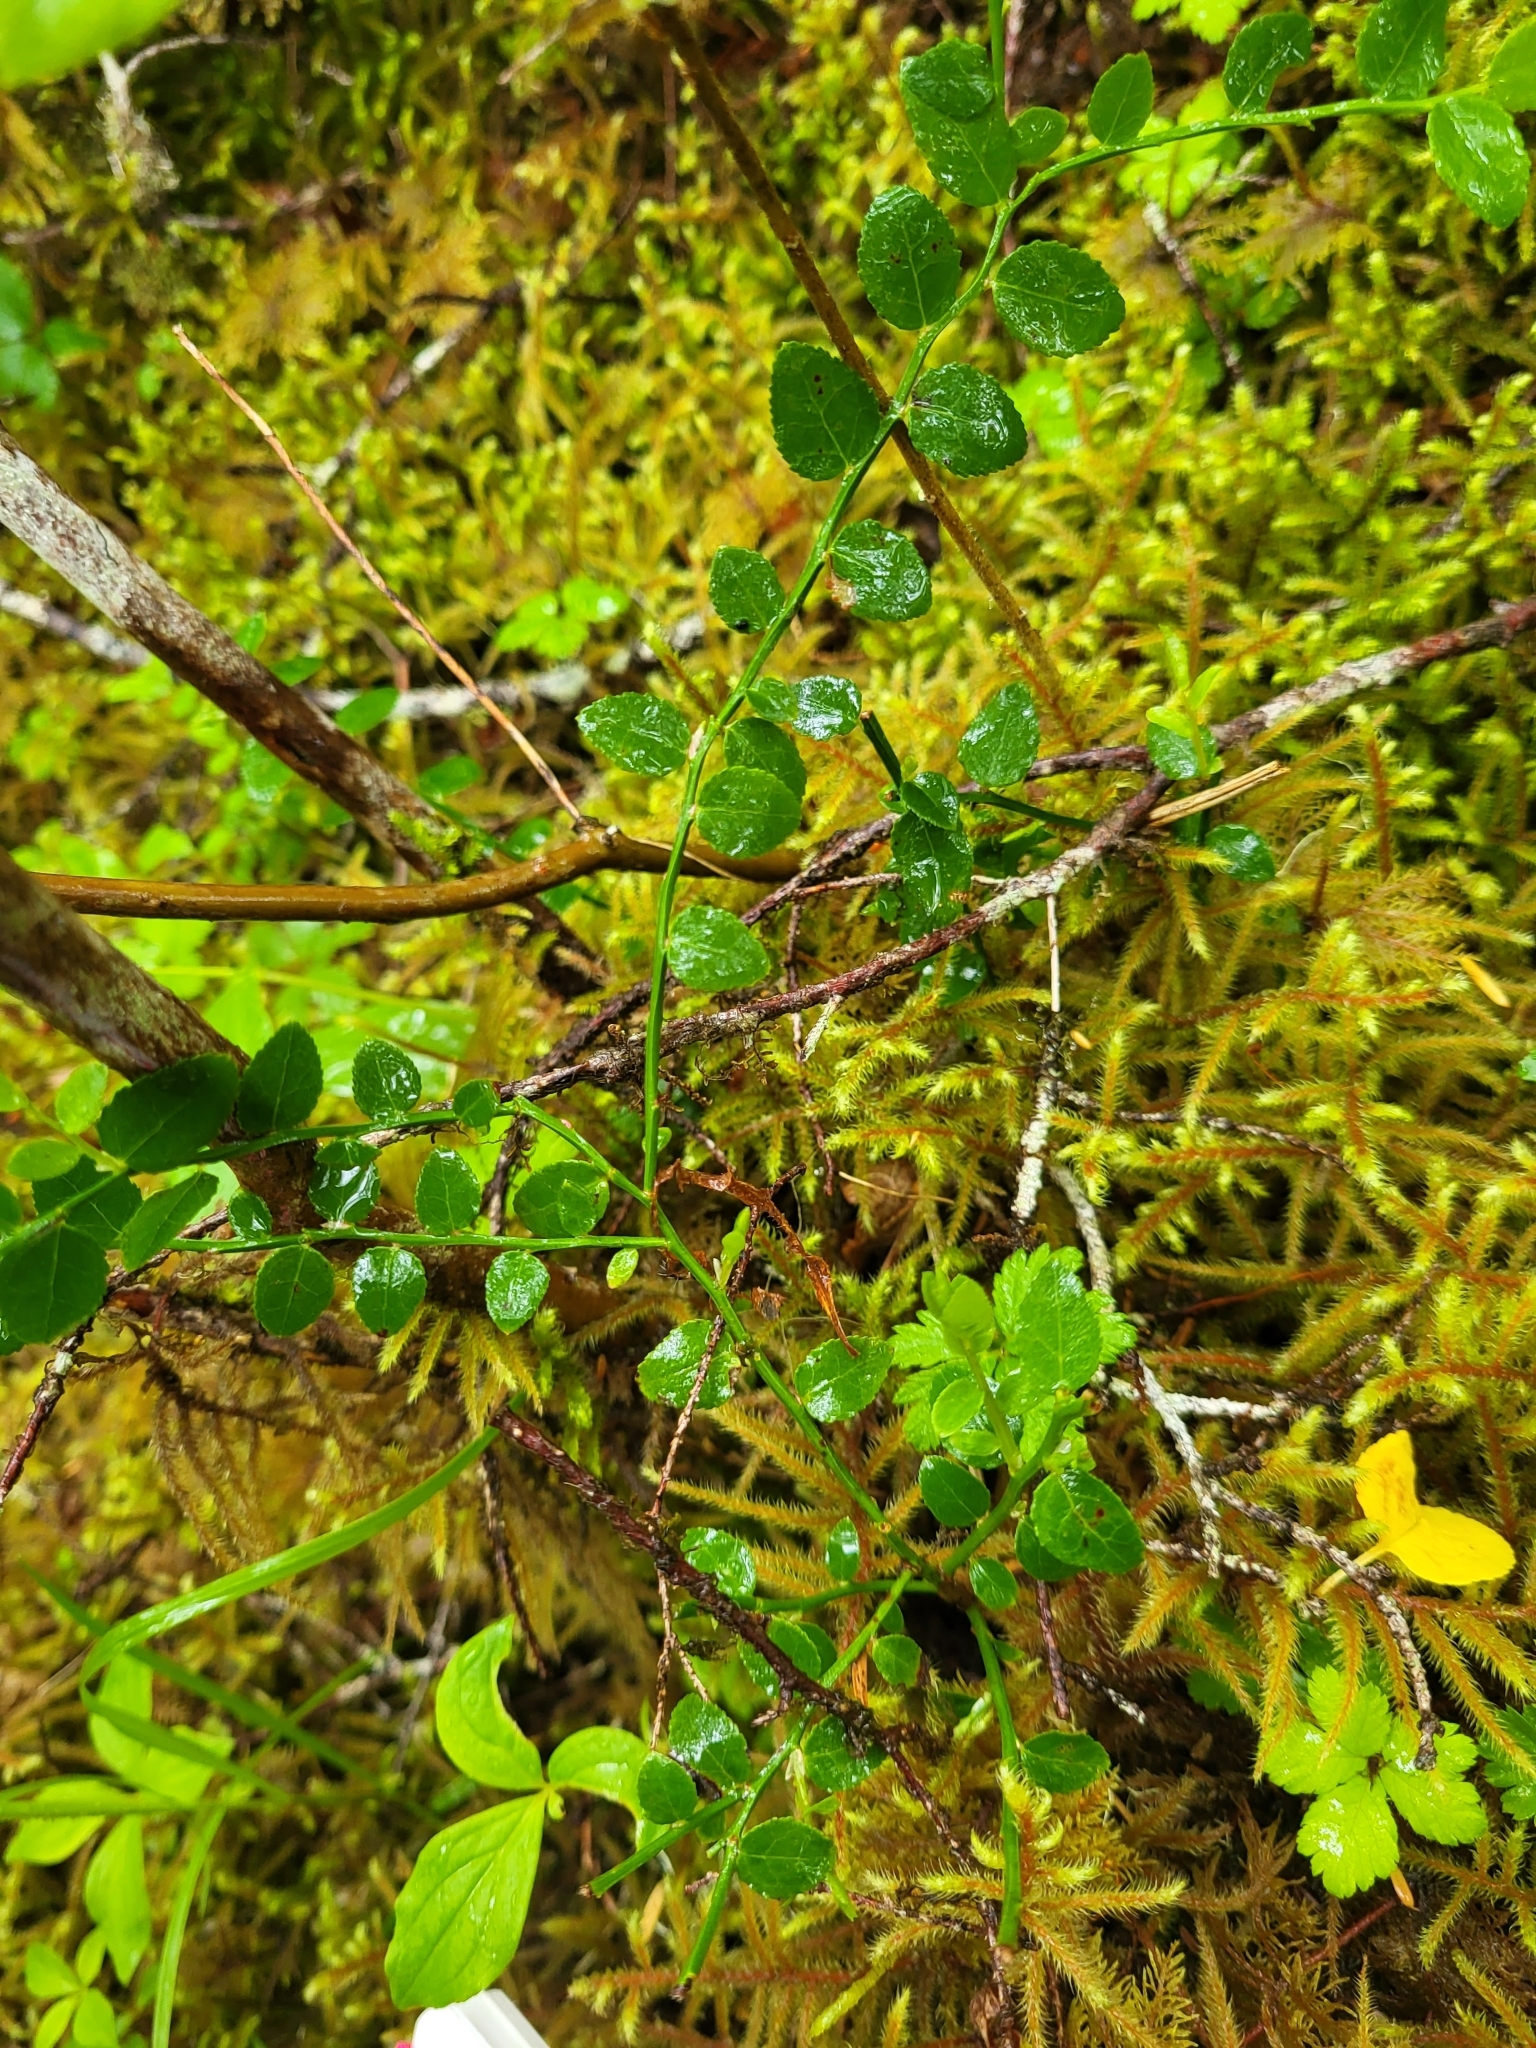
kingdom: Plantae
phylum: Tracheophyta
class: Magnoliopsida
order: Ericales
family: Ericaceae
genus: Vaccinium
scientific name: Vaccinium parvifolium
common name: Red-huckleberry
